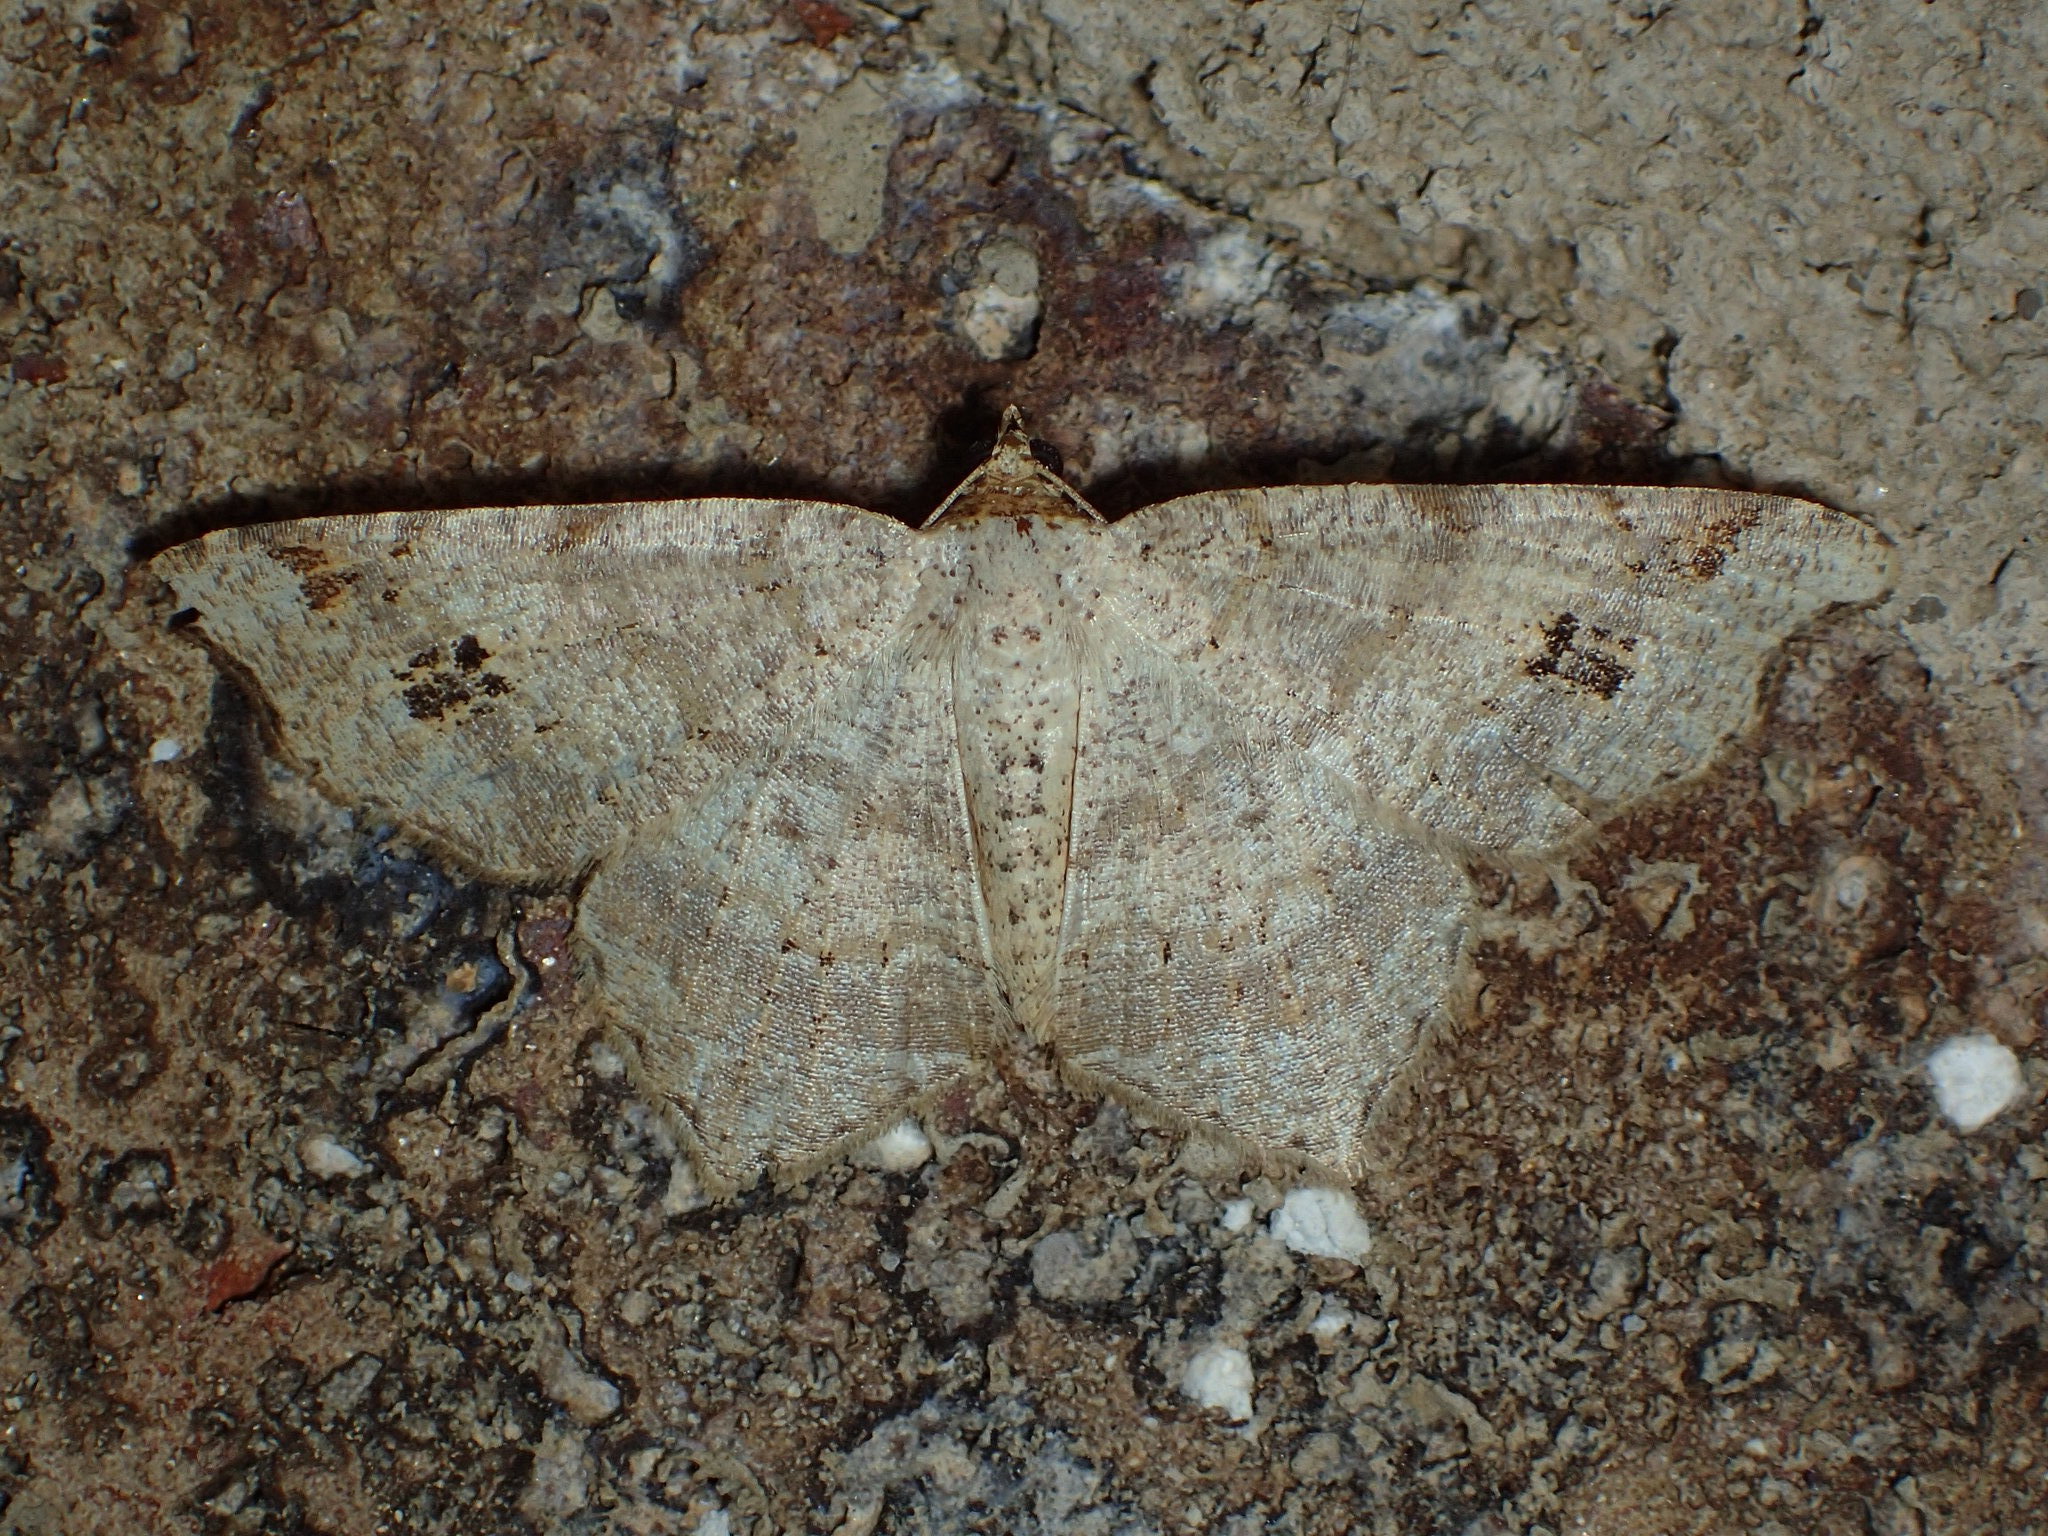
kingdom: Animalia
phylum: Arthropoda
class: Insecta
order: Lepidoptera
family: Geometridae
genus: Macaria
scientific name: Macaria aemulataria
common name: Common angle
